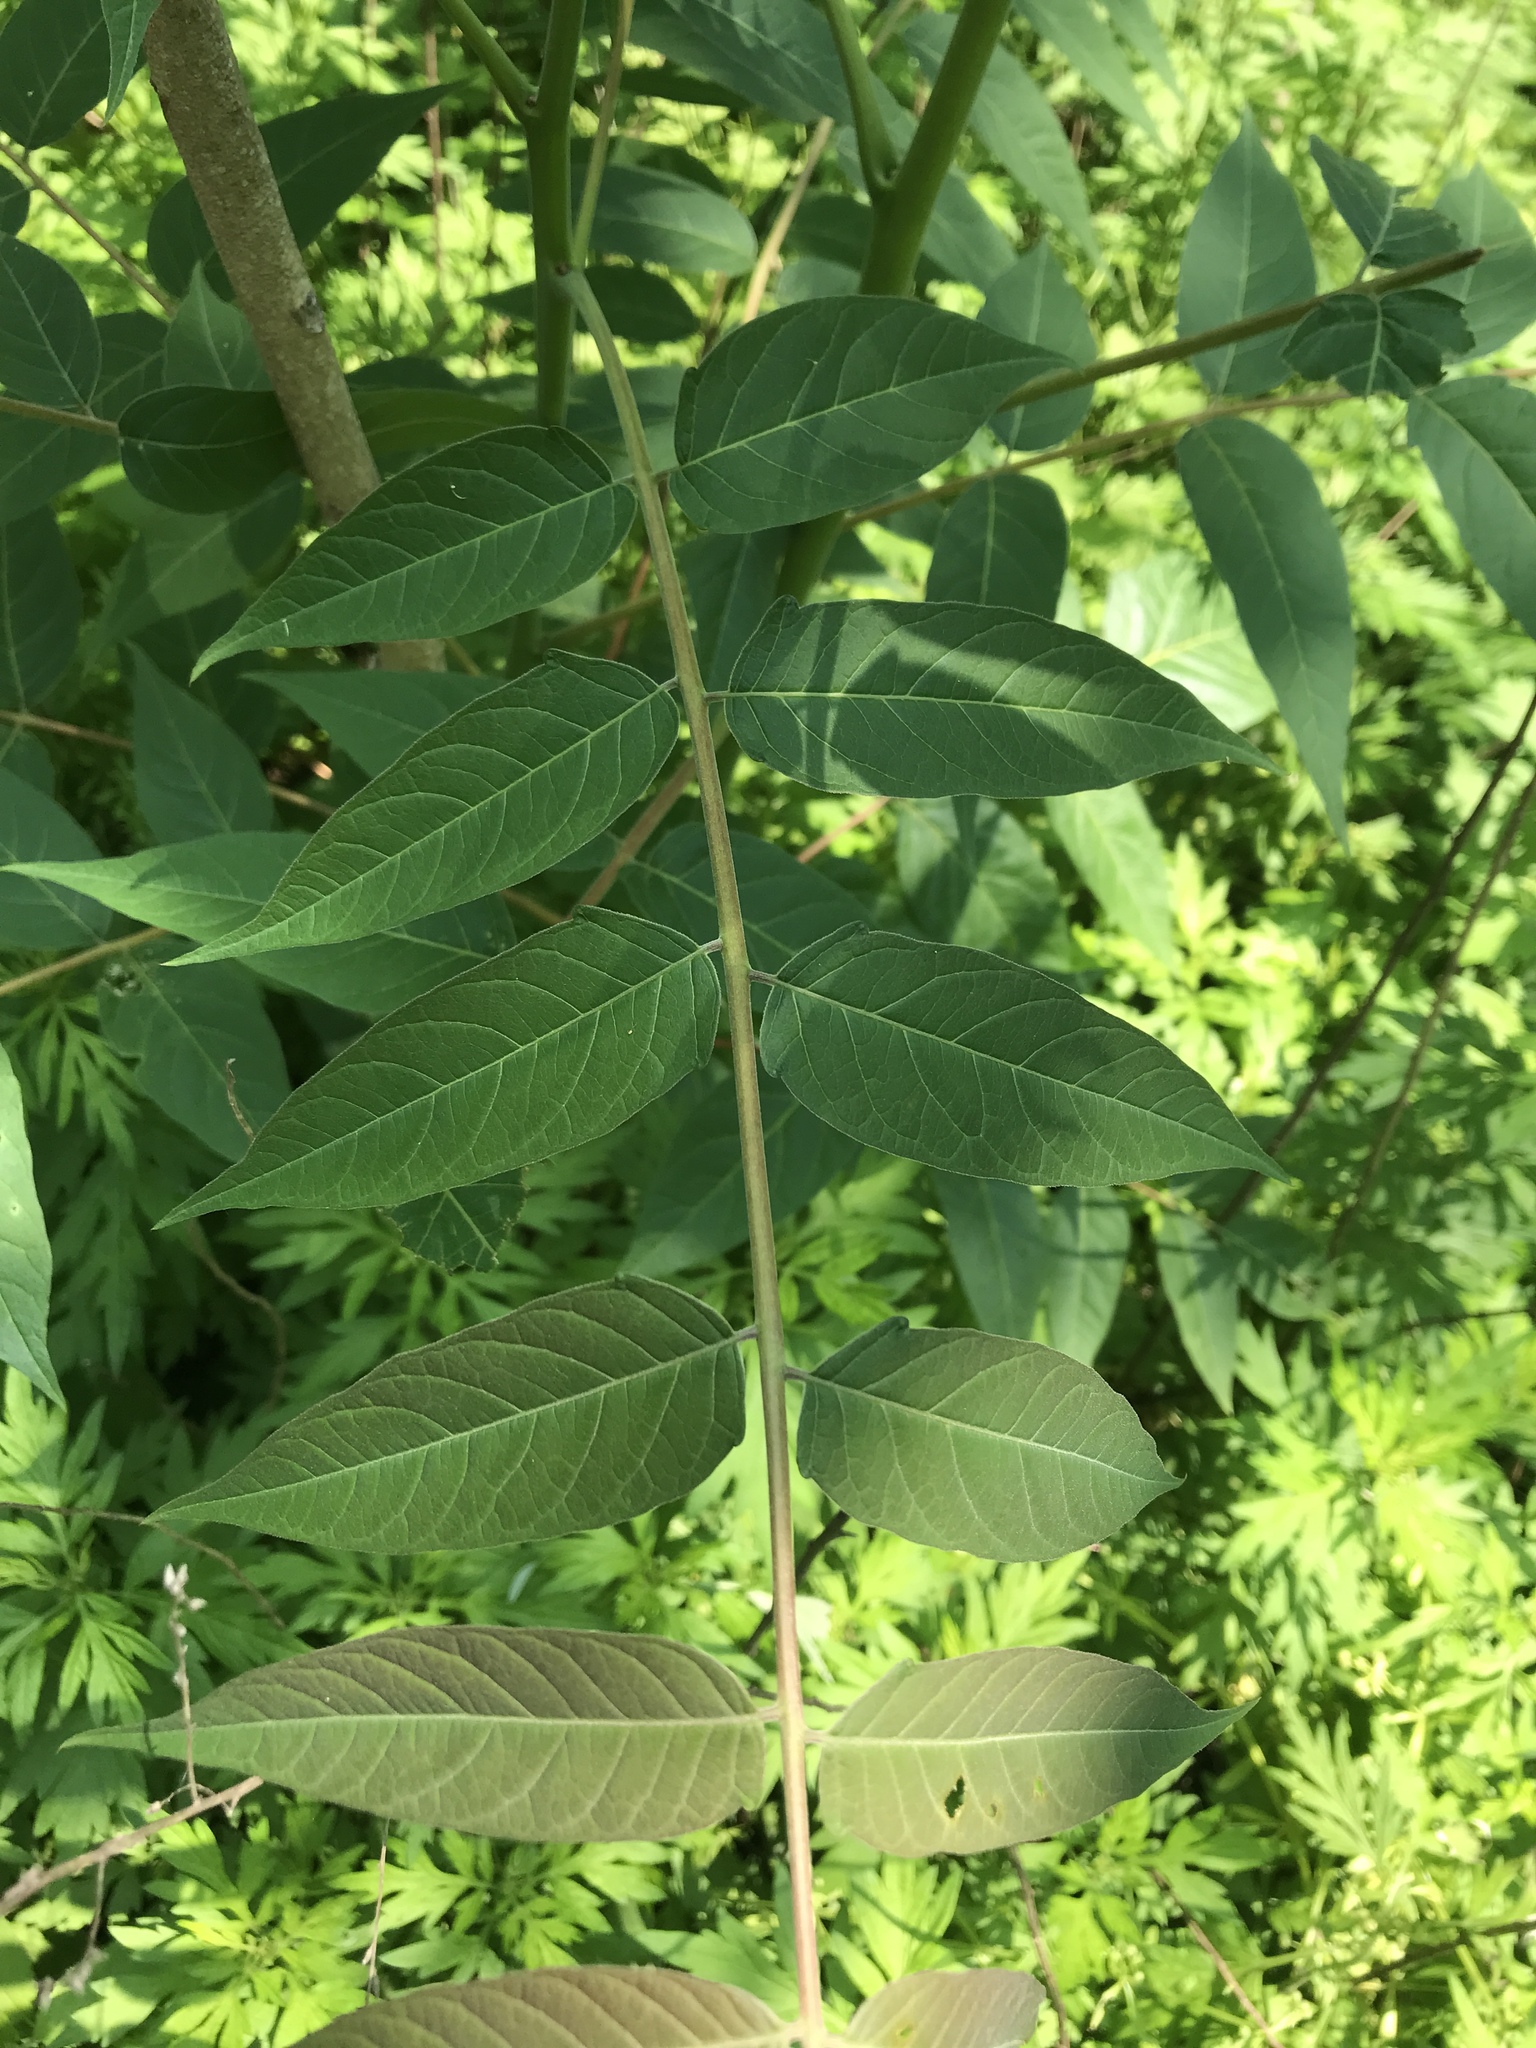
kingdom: Plantae
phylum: Tracheophyta
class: Magnoliopsida
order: Sapindales
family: Simaroubaceae
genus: Ailanthus
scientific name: Ailanthus altissima
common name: Tree-of-heaven
